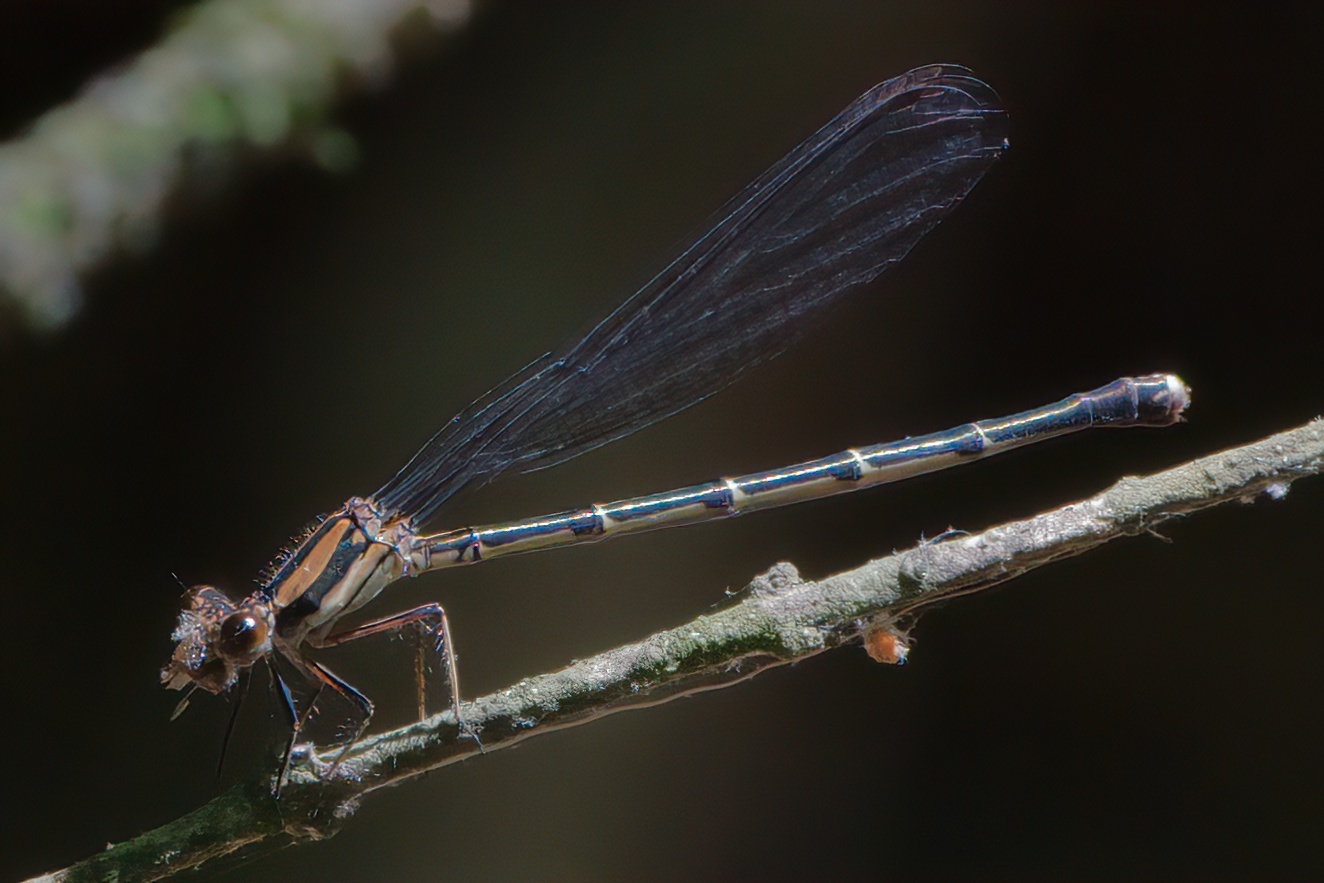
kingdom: Animalia
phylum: Arthropoda
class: Insecta
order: Odonata
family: Coenagrionidae
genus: Argia
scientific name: Argia tibialis
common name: Blue-tipped dancer
